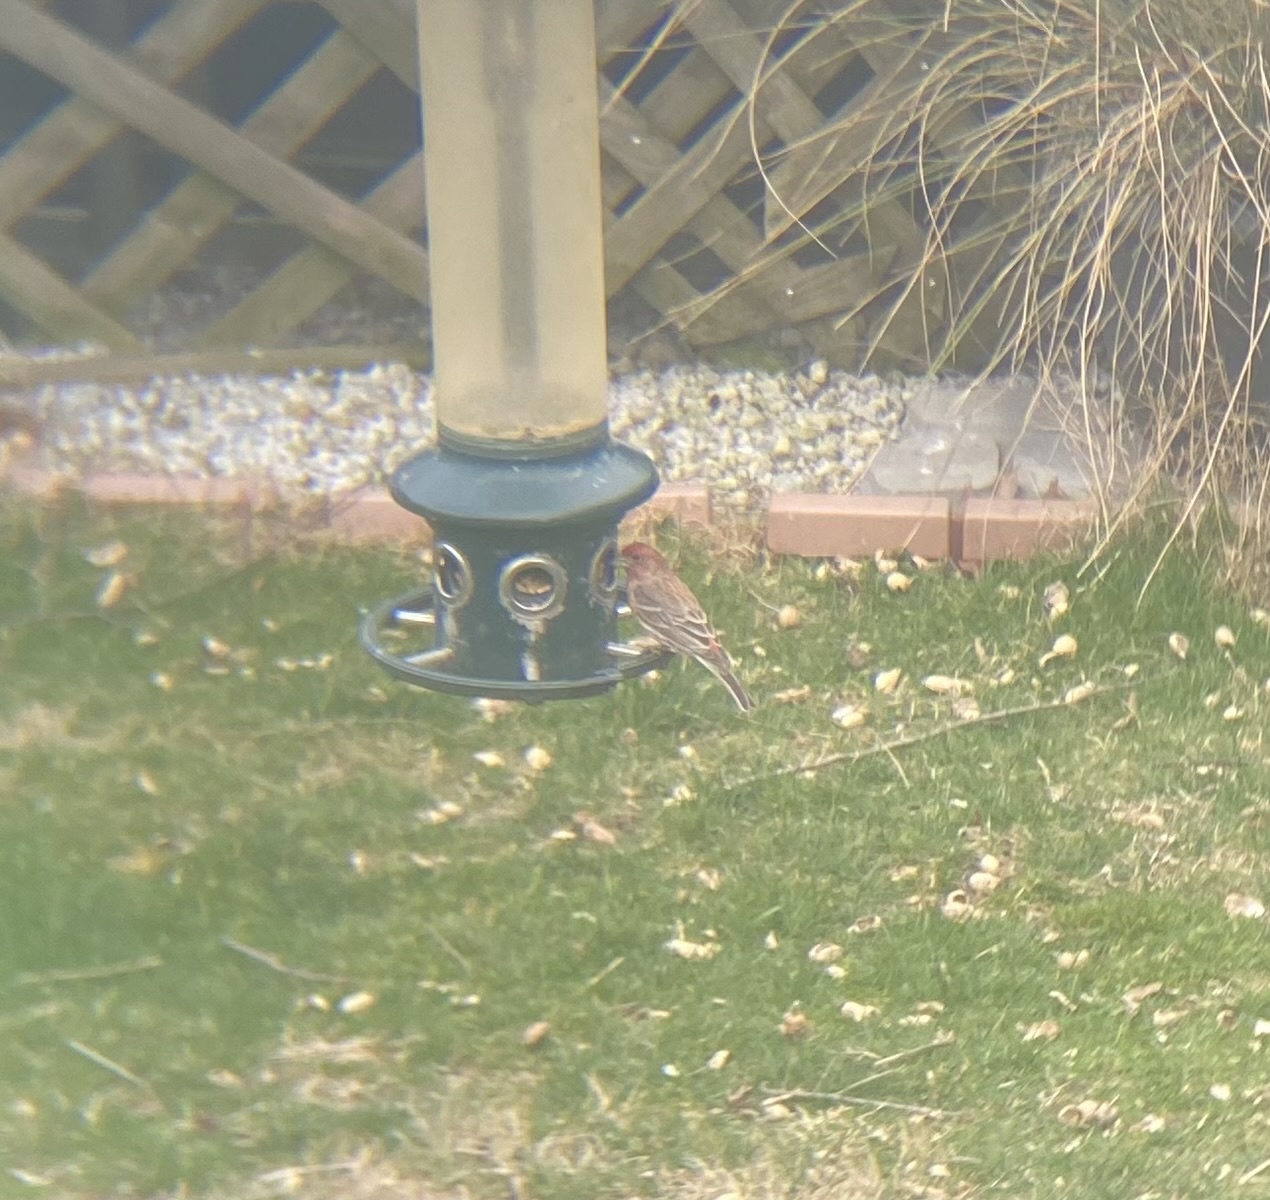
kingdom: Animalia
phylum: Chordata
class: Aves
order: Passeriformes
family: Fringillidae
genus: Haemorhous
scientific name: Haemorhous mexicanus
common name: House finch
